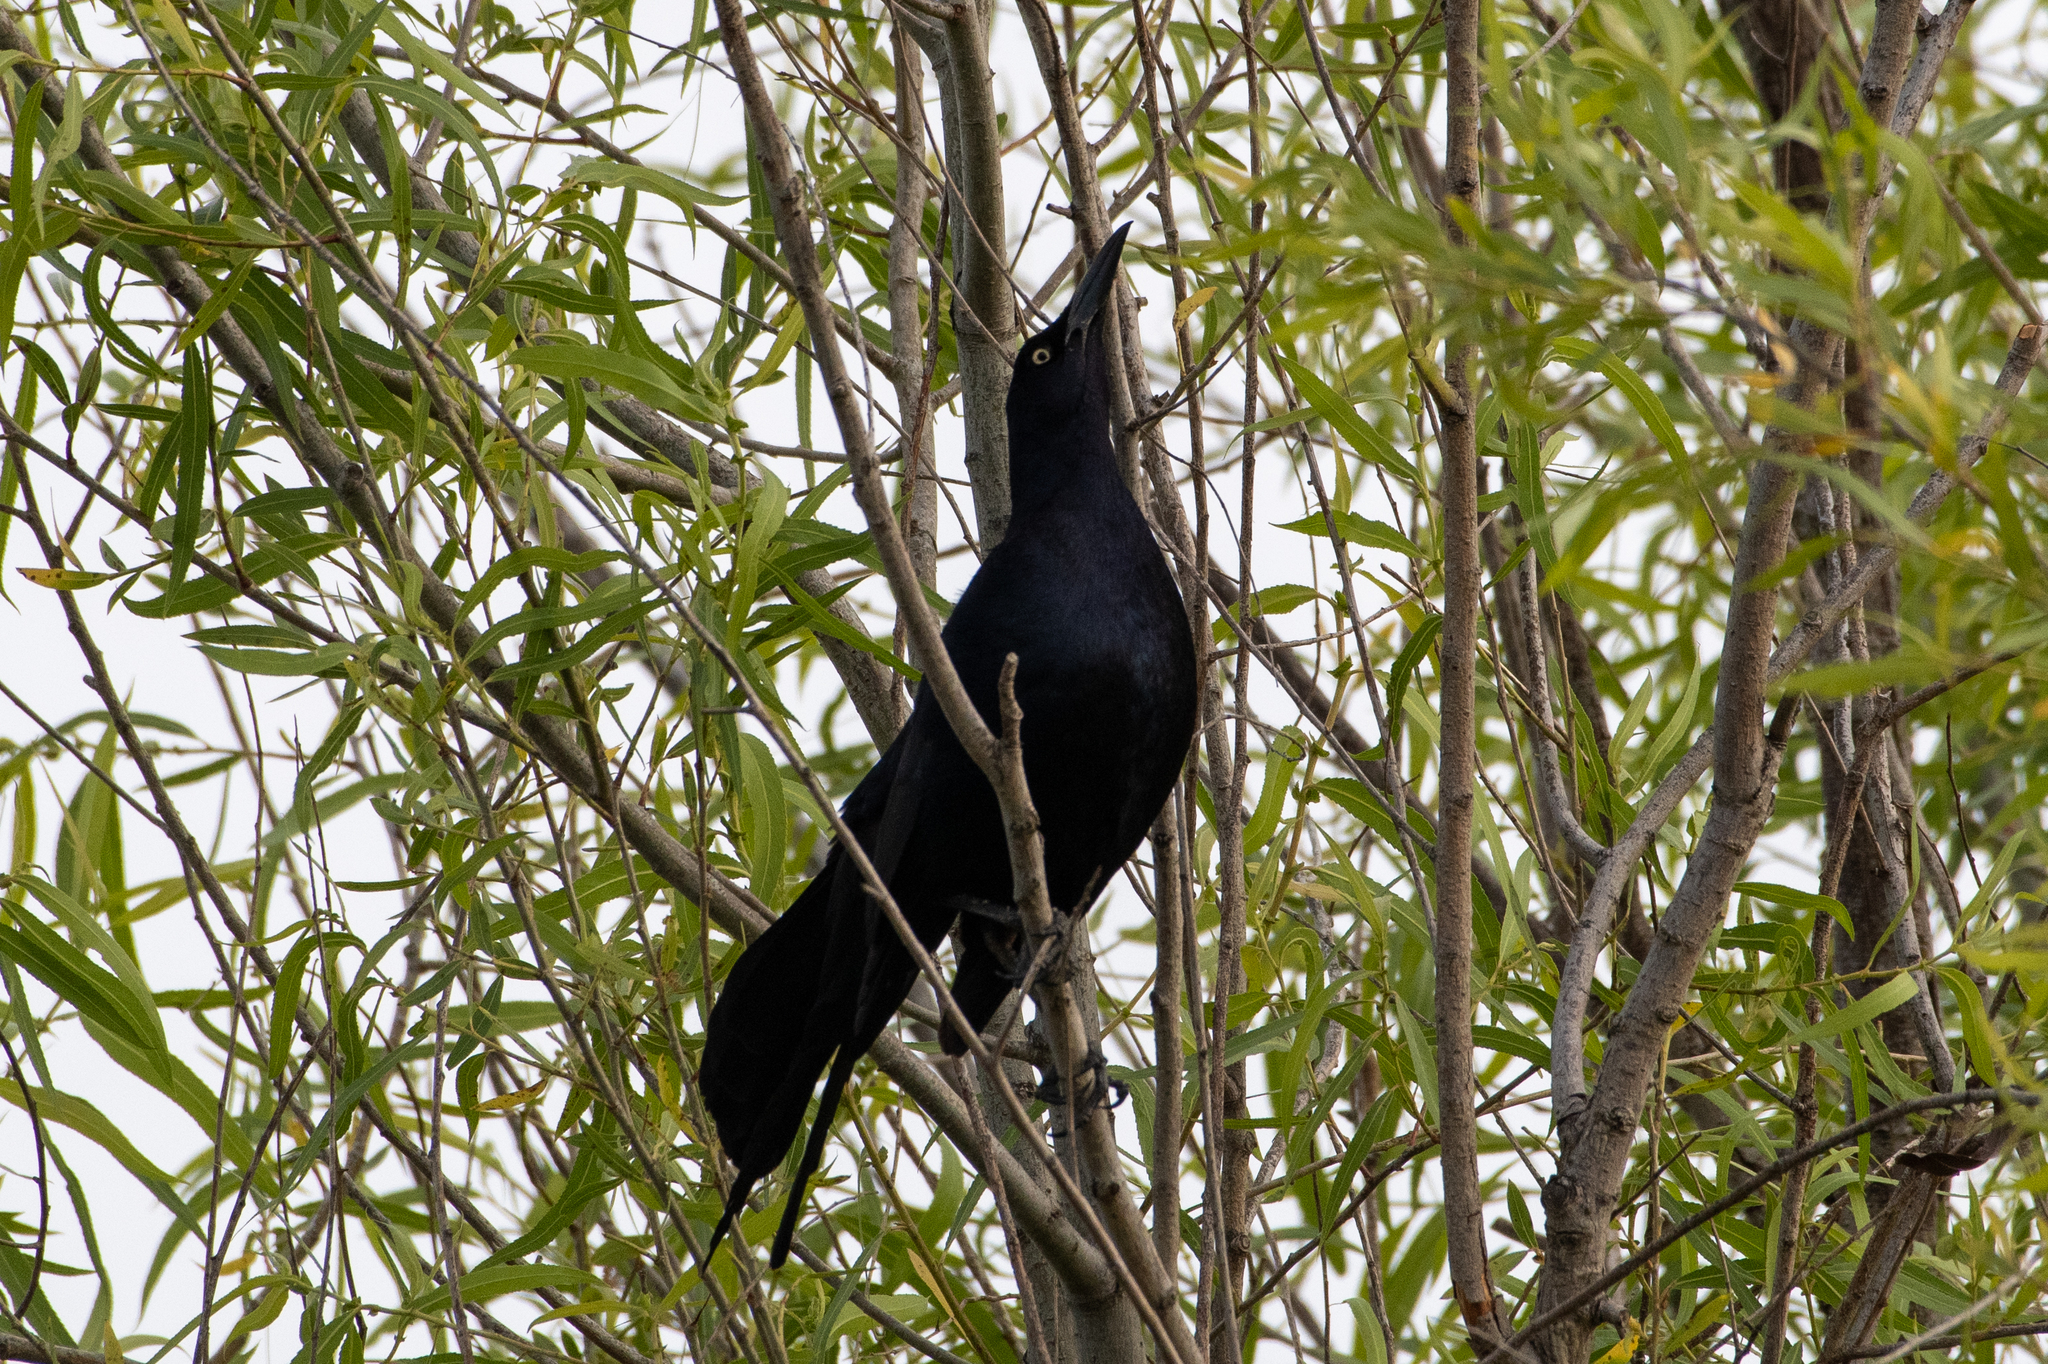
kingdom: Animalia
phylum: Chordata
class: Aves
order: Passeriformes
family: Icteridae
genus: Quiscalus
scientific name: Quiscalus mexicanus
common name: Great-tailed grackle
